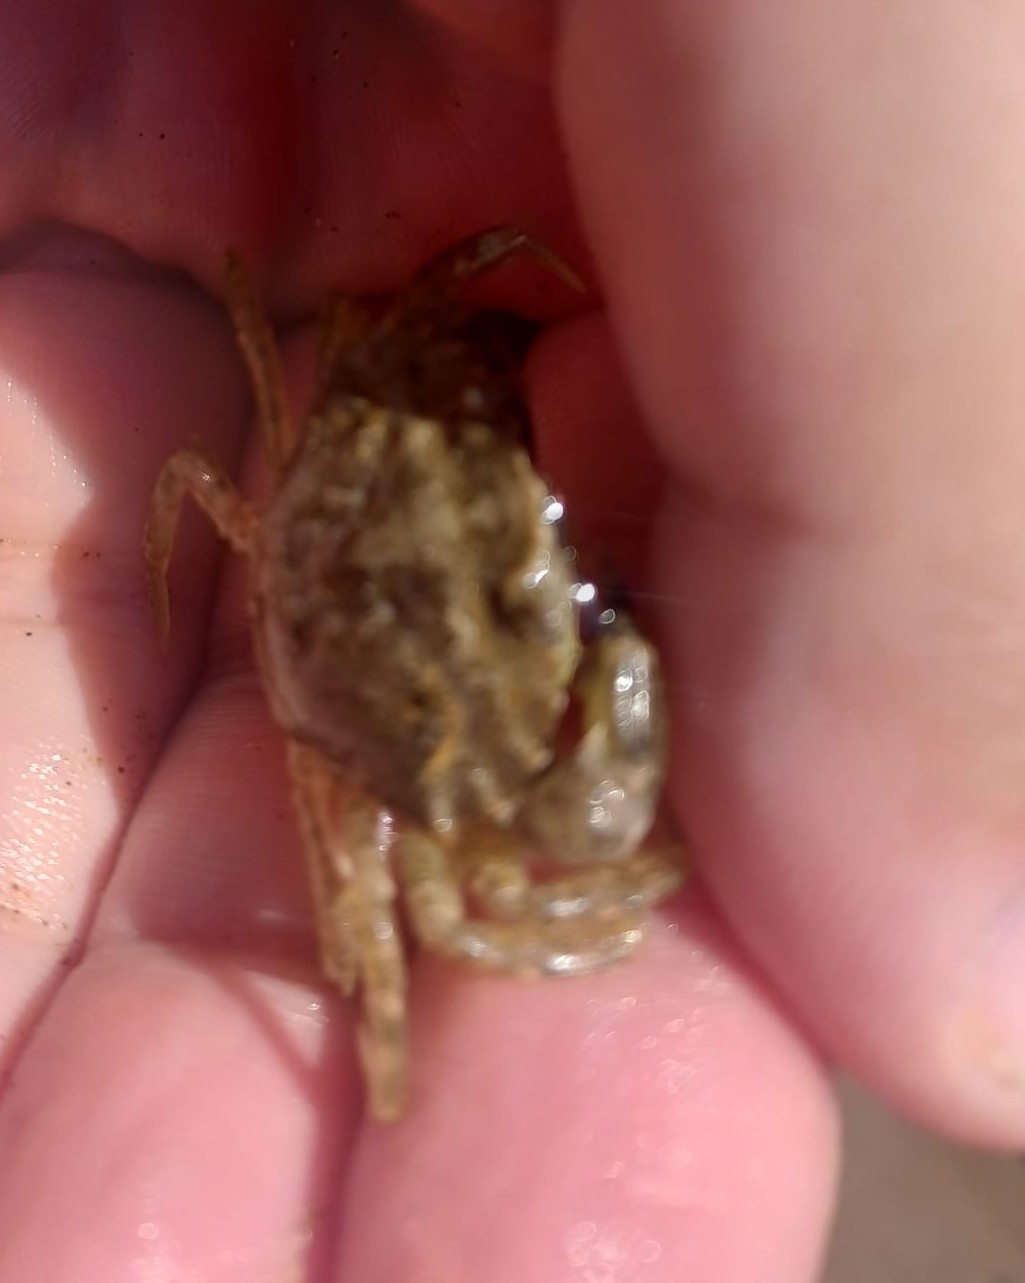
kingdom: Animalia
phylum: Arthropoda
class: Malacostraca
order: Decapoda
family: Carcinidae
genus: Carcinus
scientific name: Carcinus maenas
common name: European green crab
